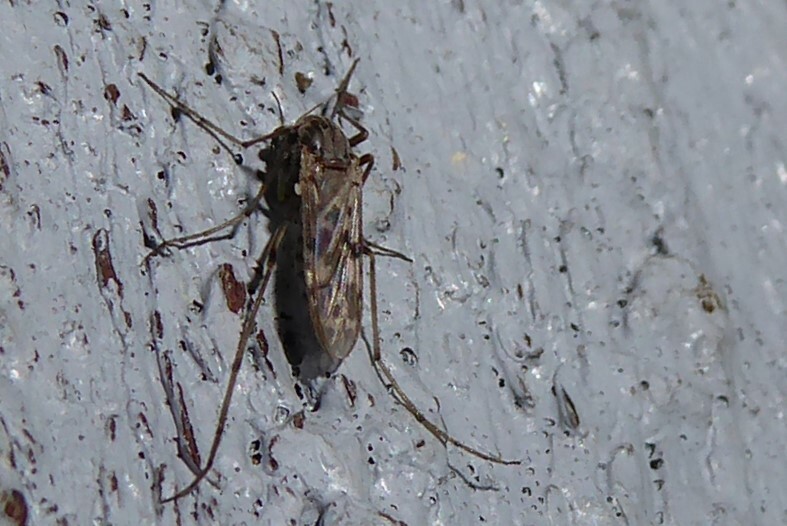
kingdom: Animalia
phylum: Arthropoda
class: Insecta
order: Diptera
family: Chironomidae
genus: Gressittius
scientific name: Gressittius antarcticus
